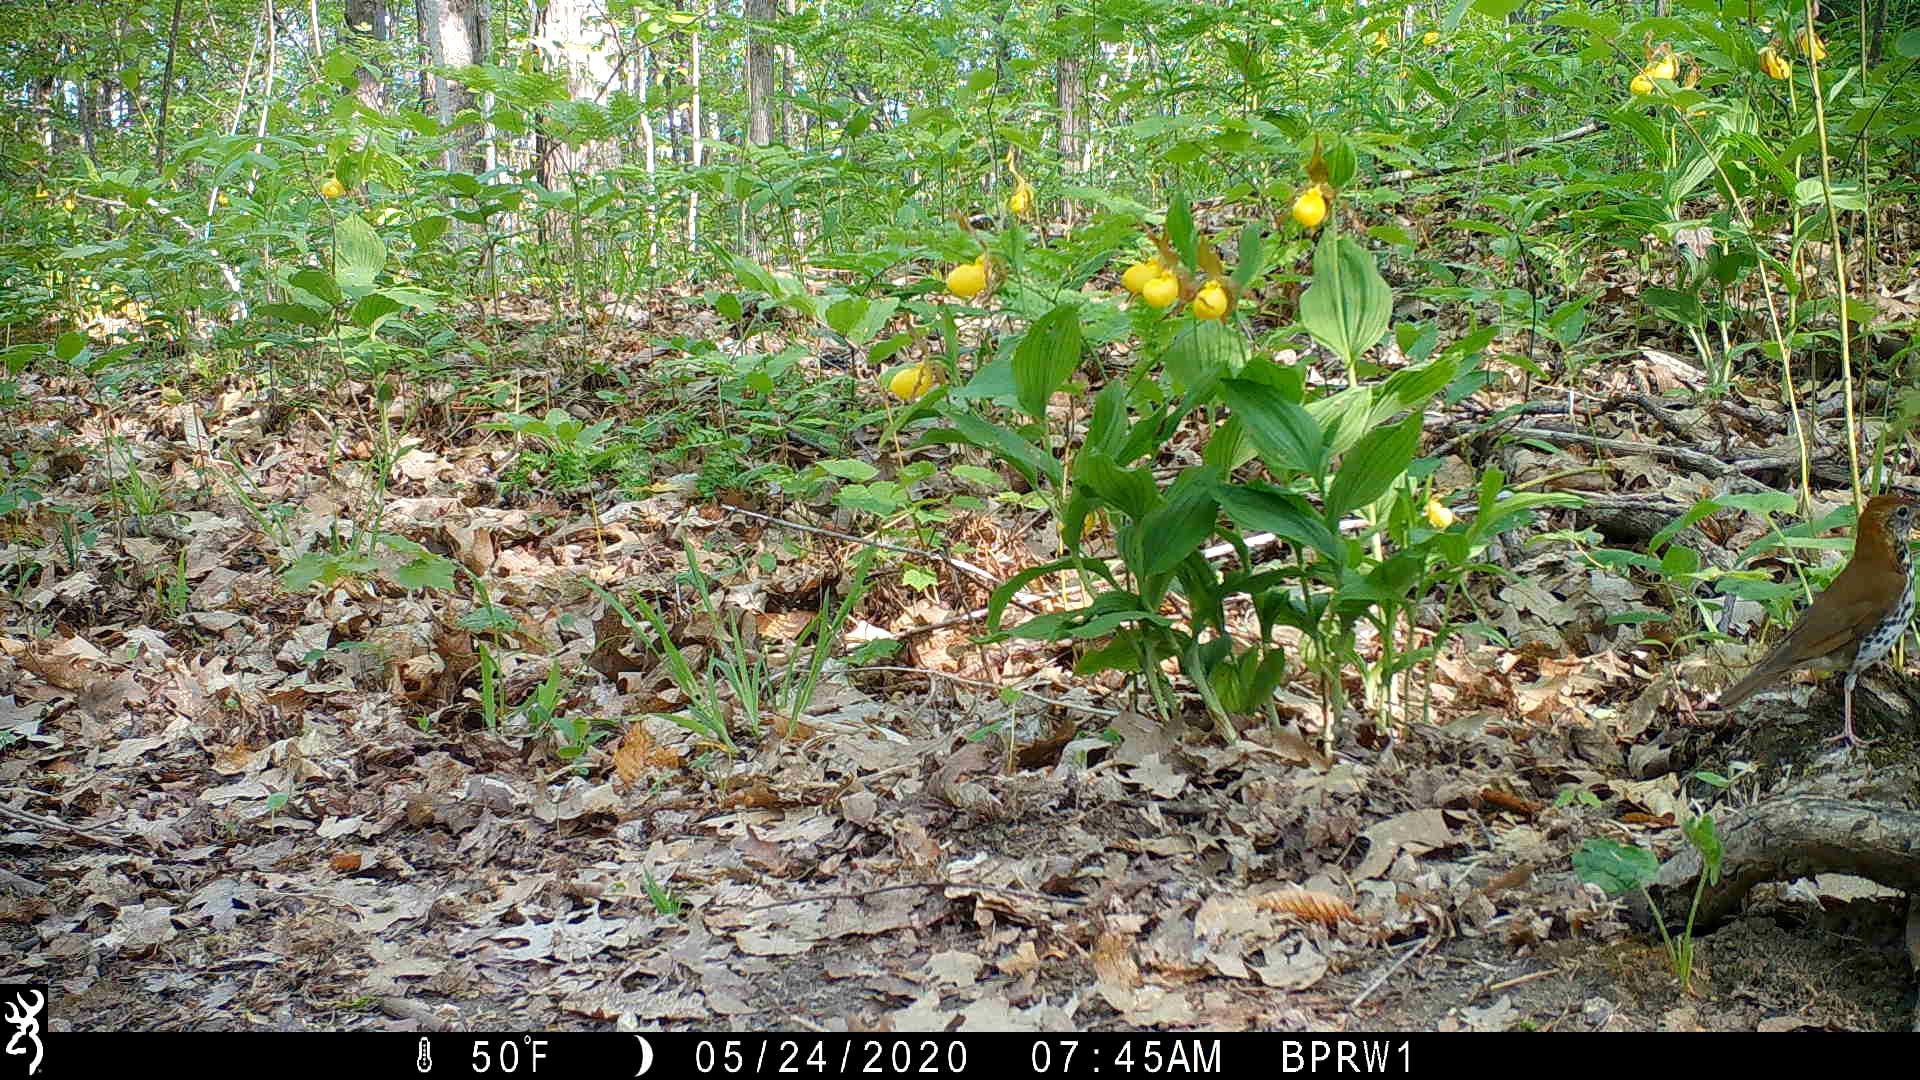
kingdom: Plantae
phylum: Tracheophyta
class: Liliopsida
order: Asparagales
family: Orchidaceae
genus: Cypripedium
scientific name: Cypripedium parviflorum
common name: American yellow lady's-slipper
